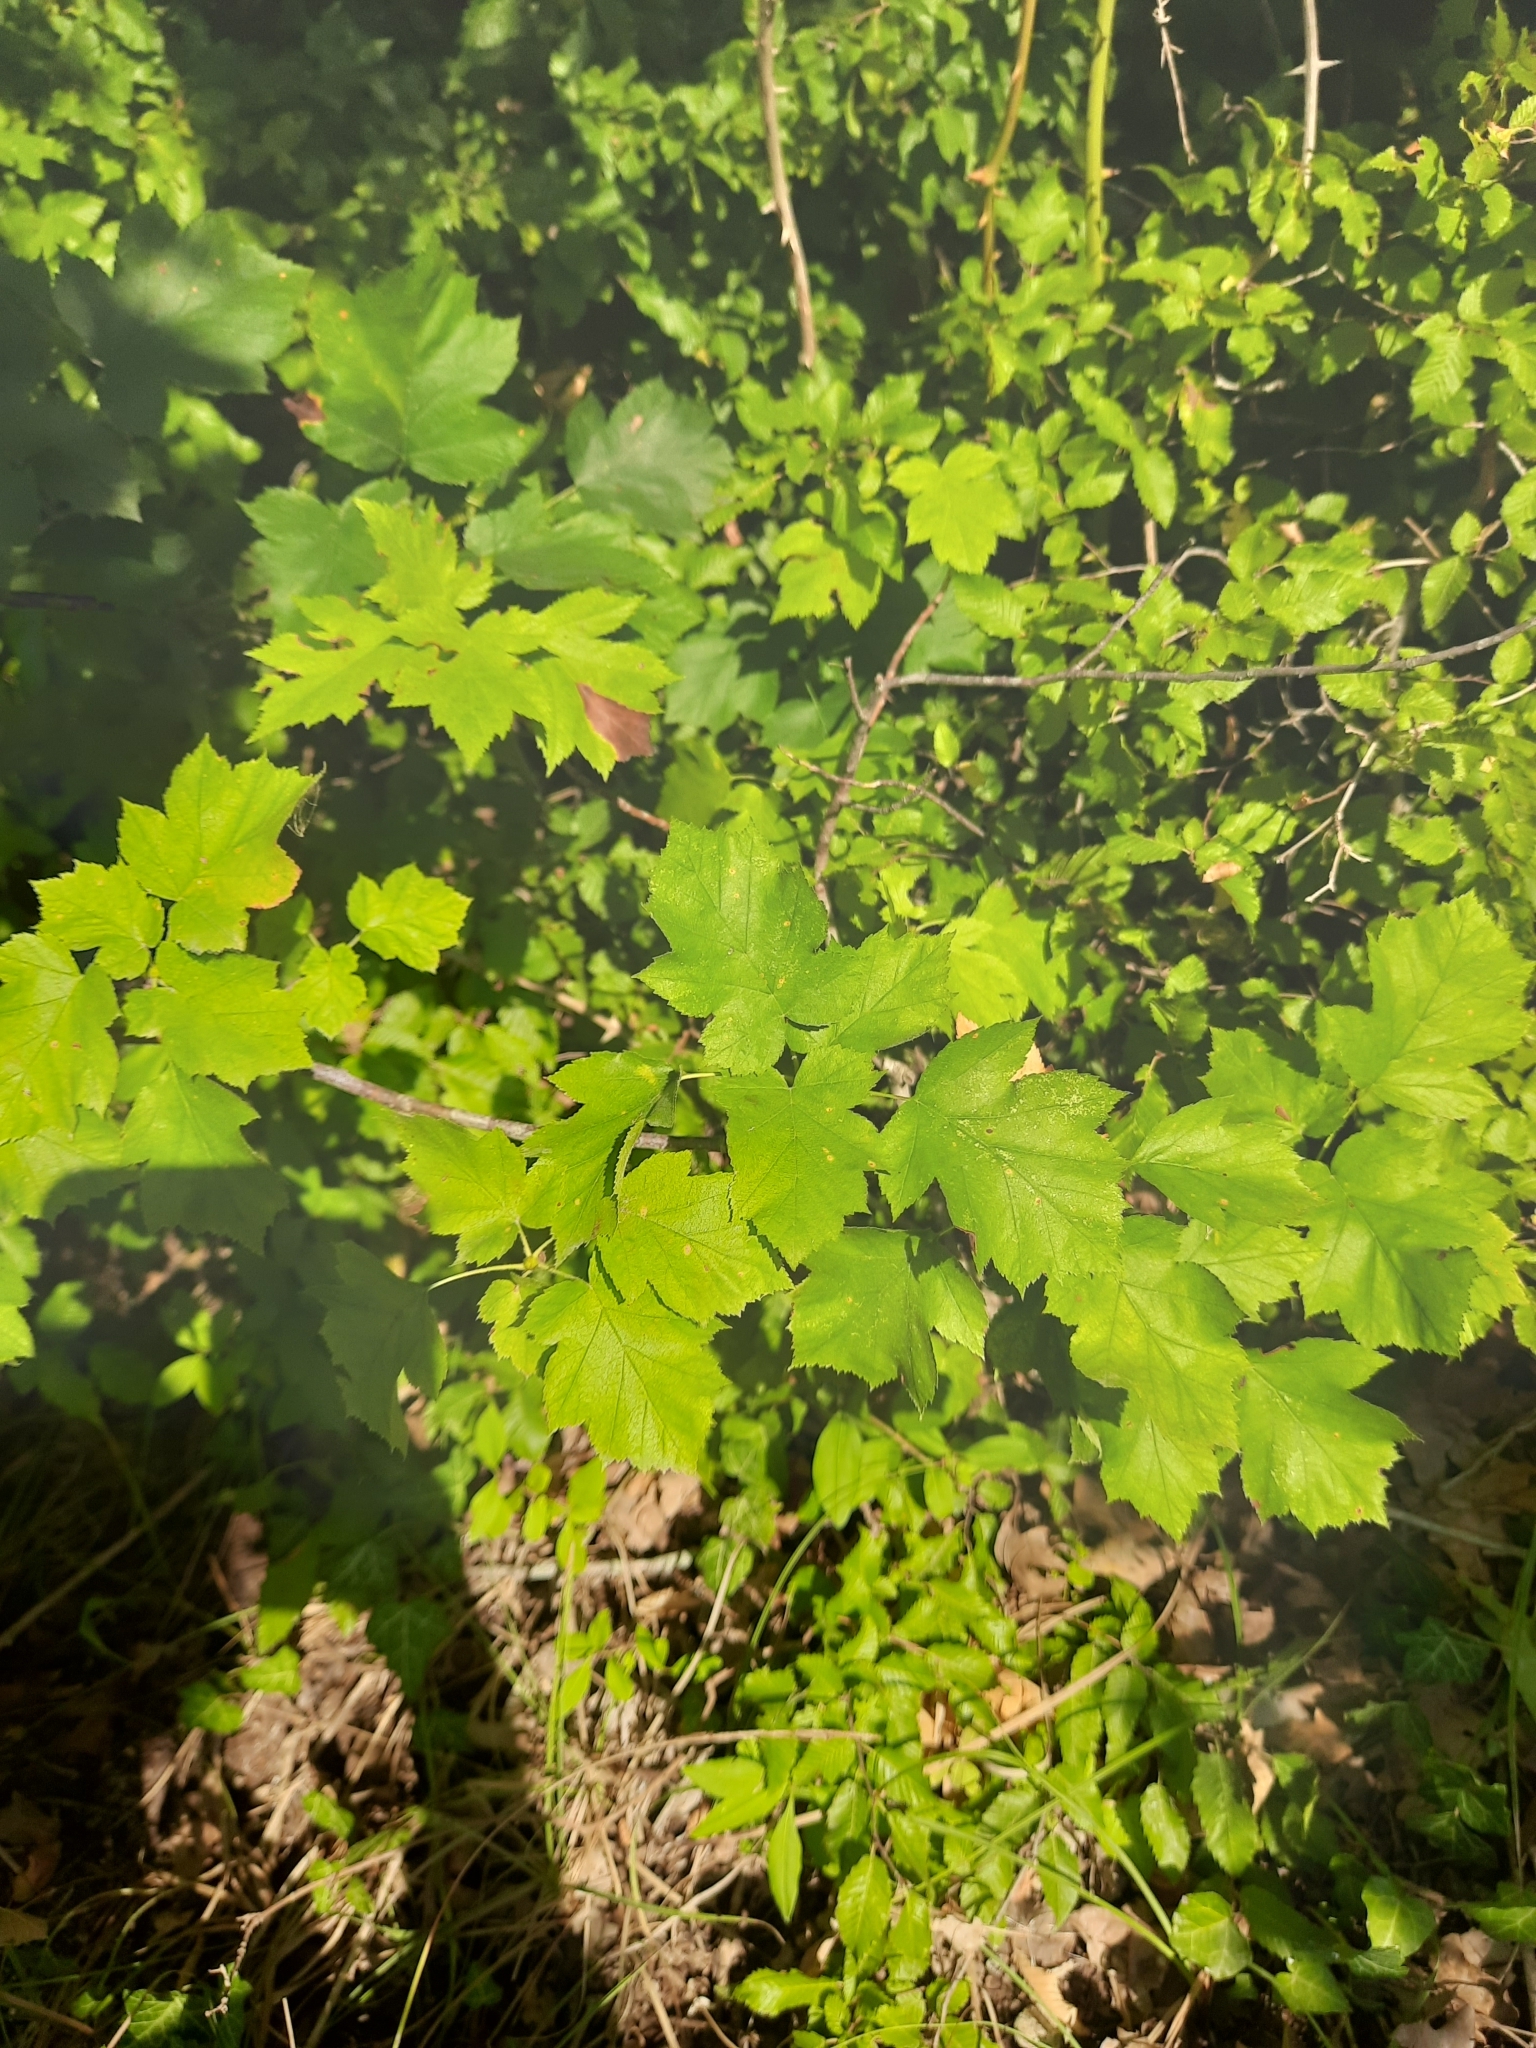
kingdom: Plantae
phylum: Tracheophyta
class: Magnoliopsida
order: Rosales
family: Rosaceae
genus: Torminalis
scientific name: Torminalis glaberrima
